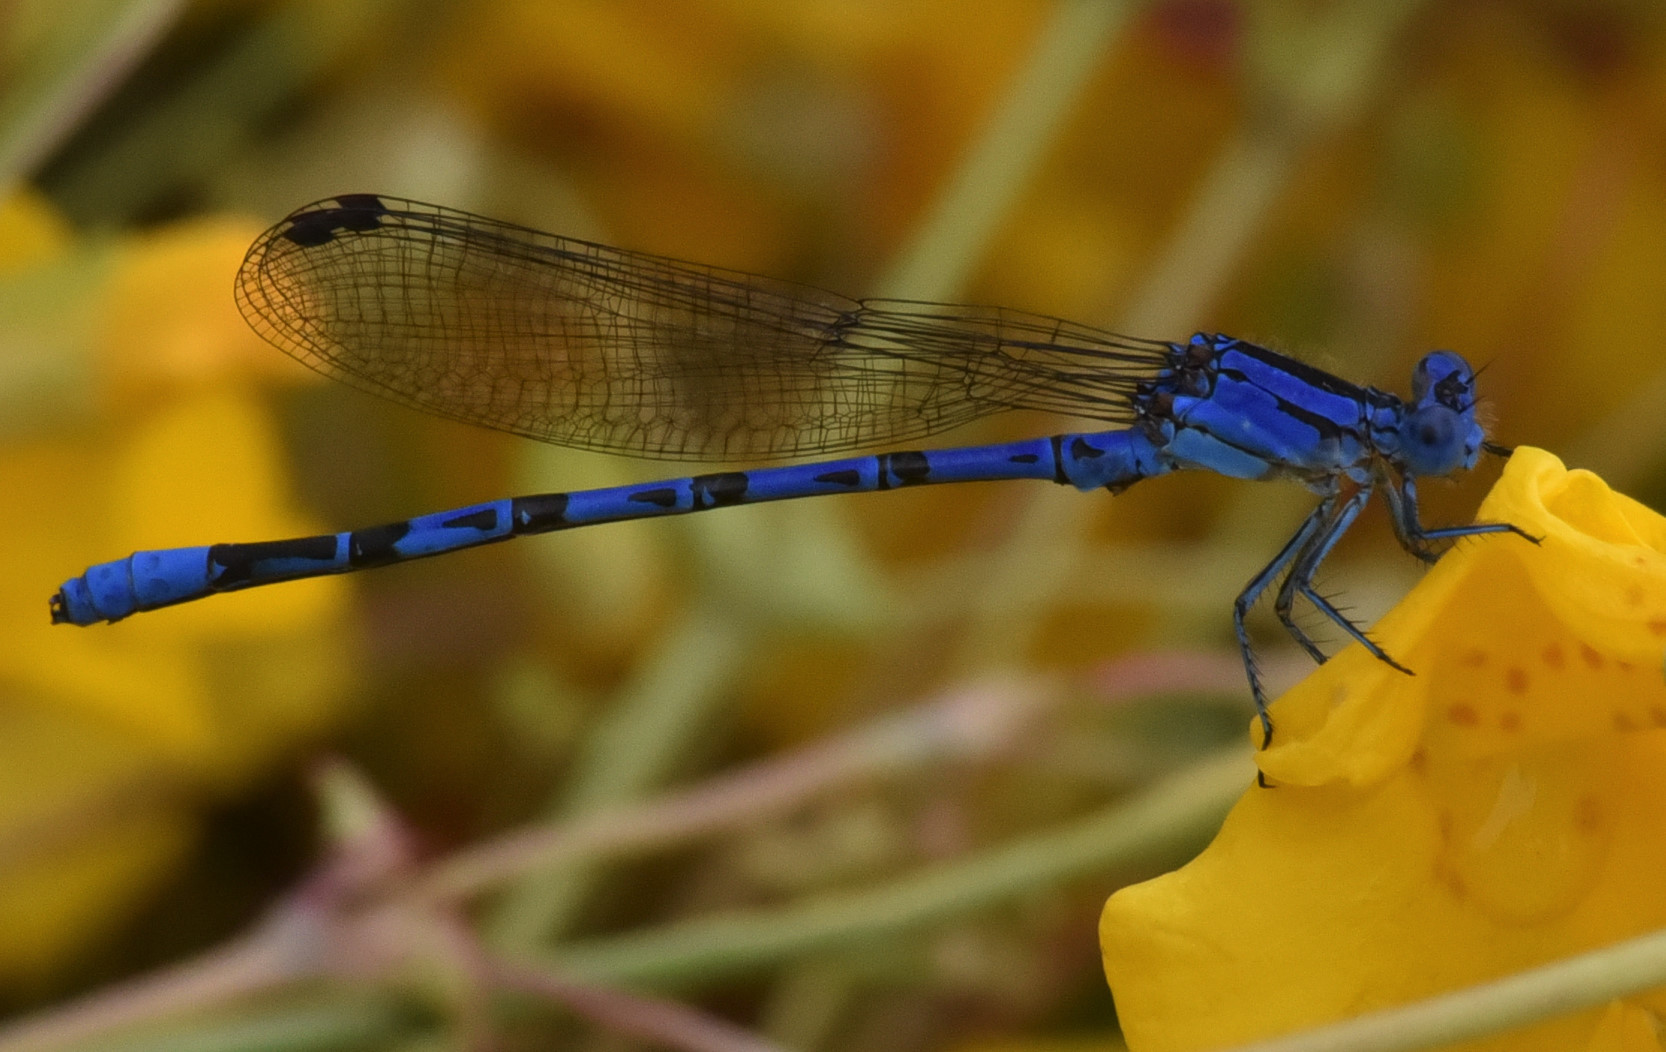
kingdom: Animalia
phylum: Arthropoda
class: Insecta
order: Odonata
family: Coenagrionidae
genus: Argia
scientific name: Argia vivida
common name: Vivid dancer
